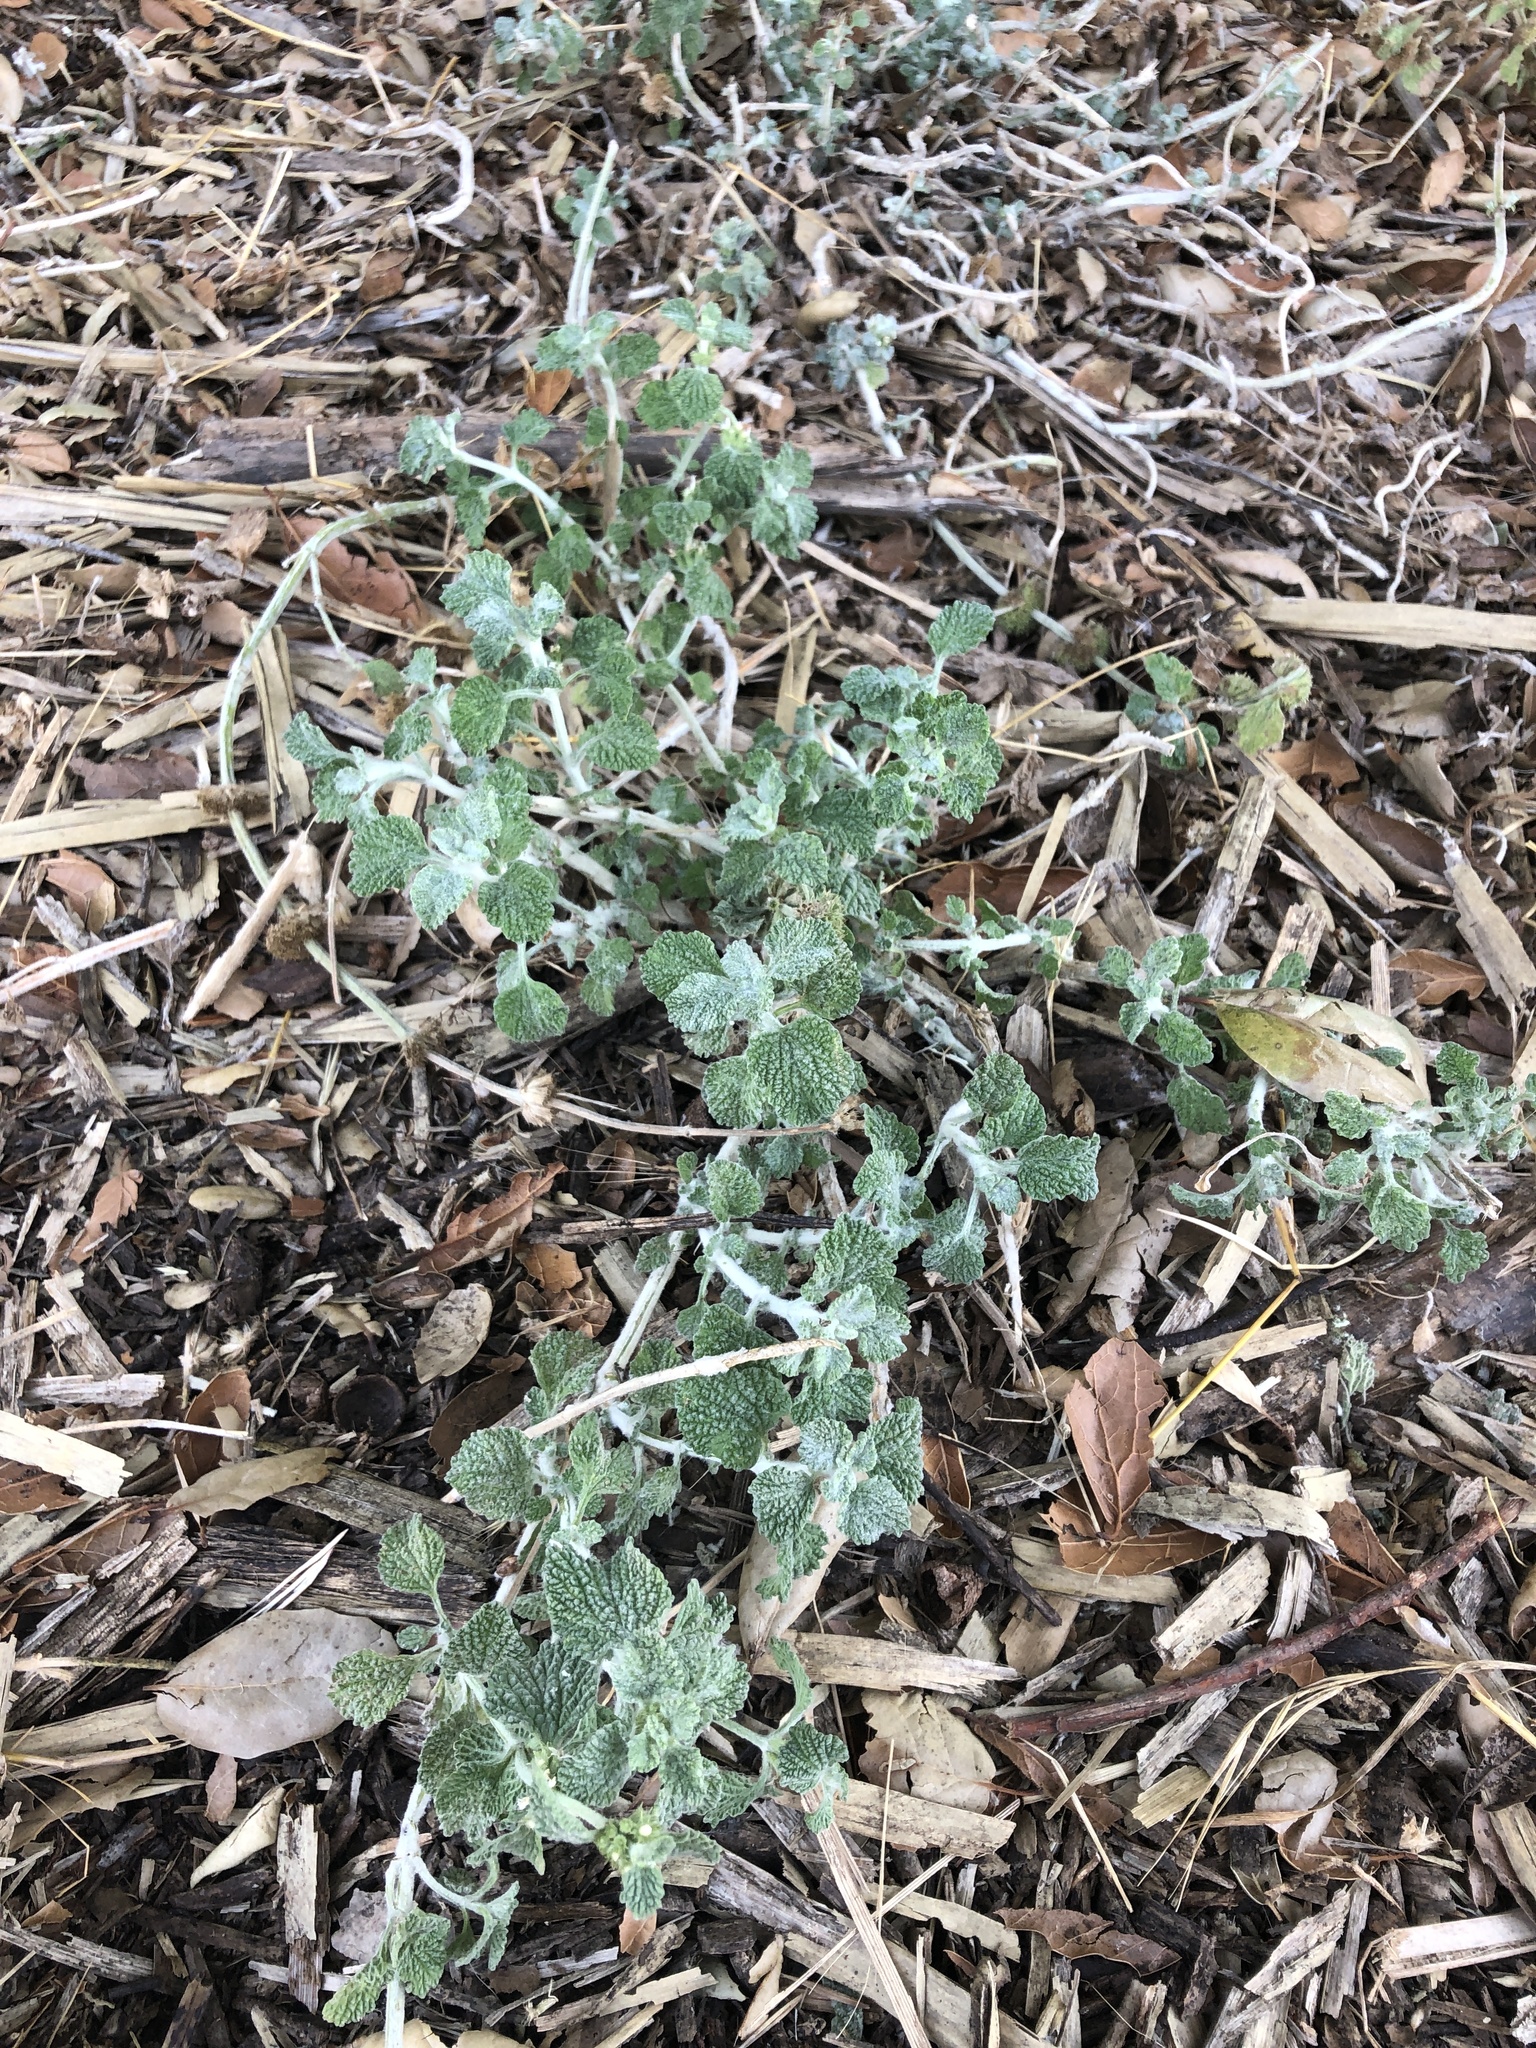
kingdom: Plantae
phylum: Tracheophyta
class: Magnoliopsida
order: Lamiales
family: Lamiaceae
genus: Marrubium
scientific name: Marrubium vulgare
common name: Horehound
